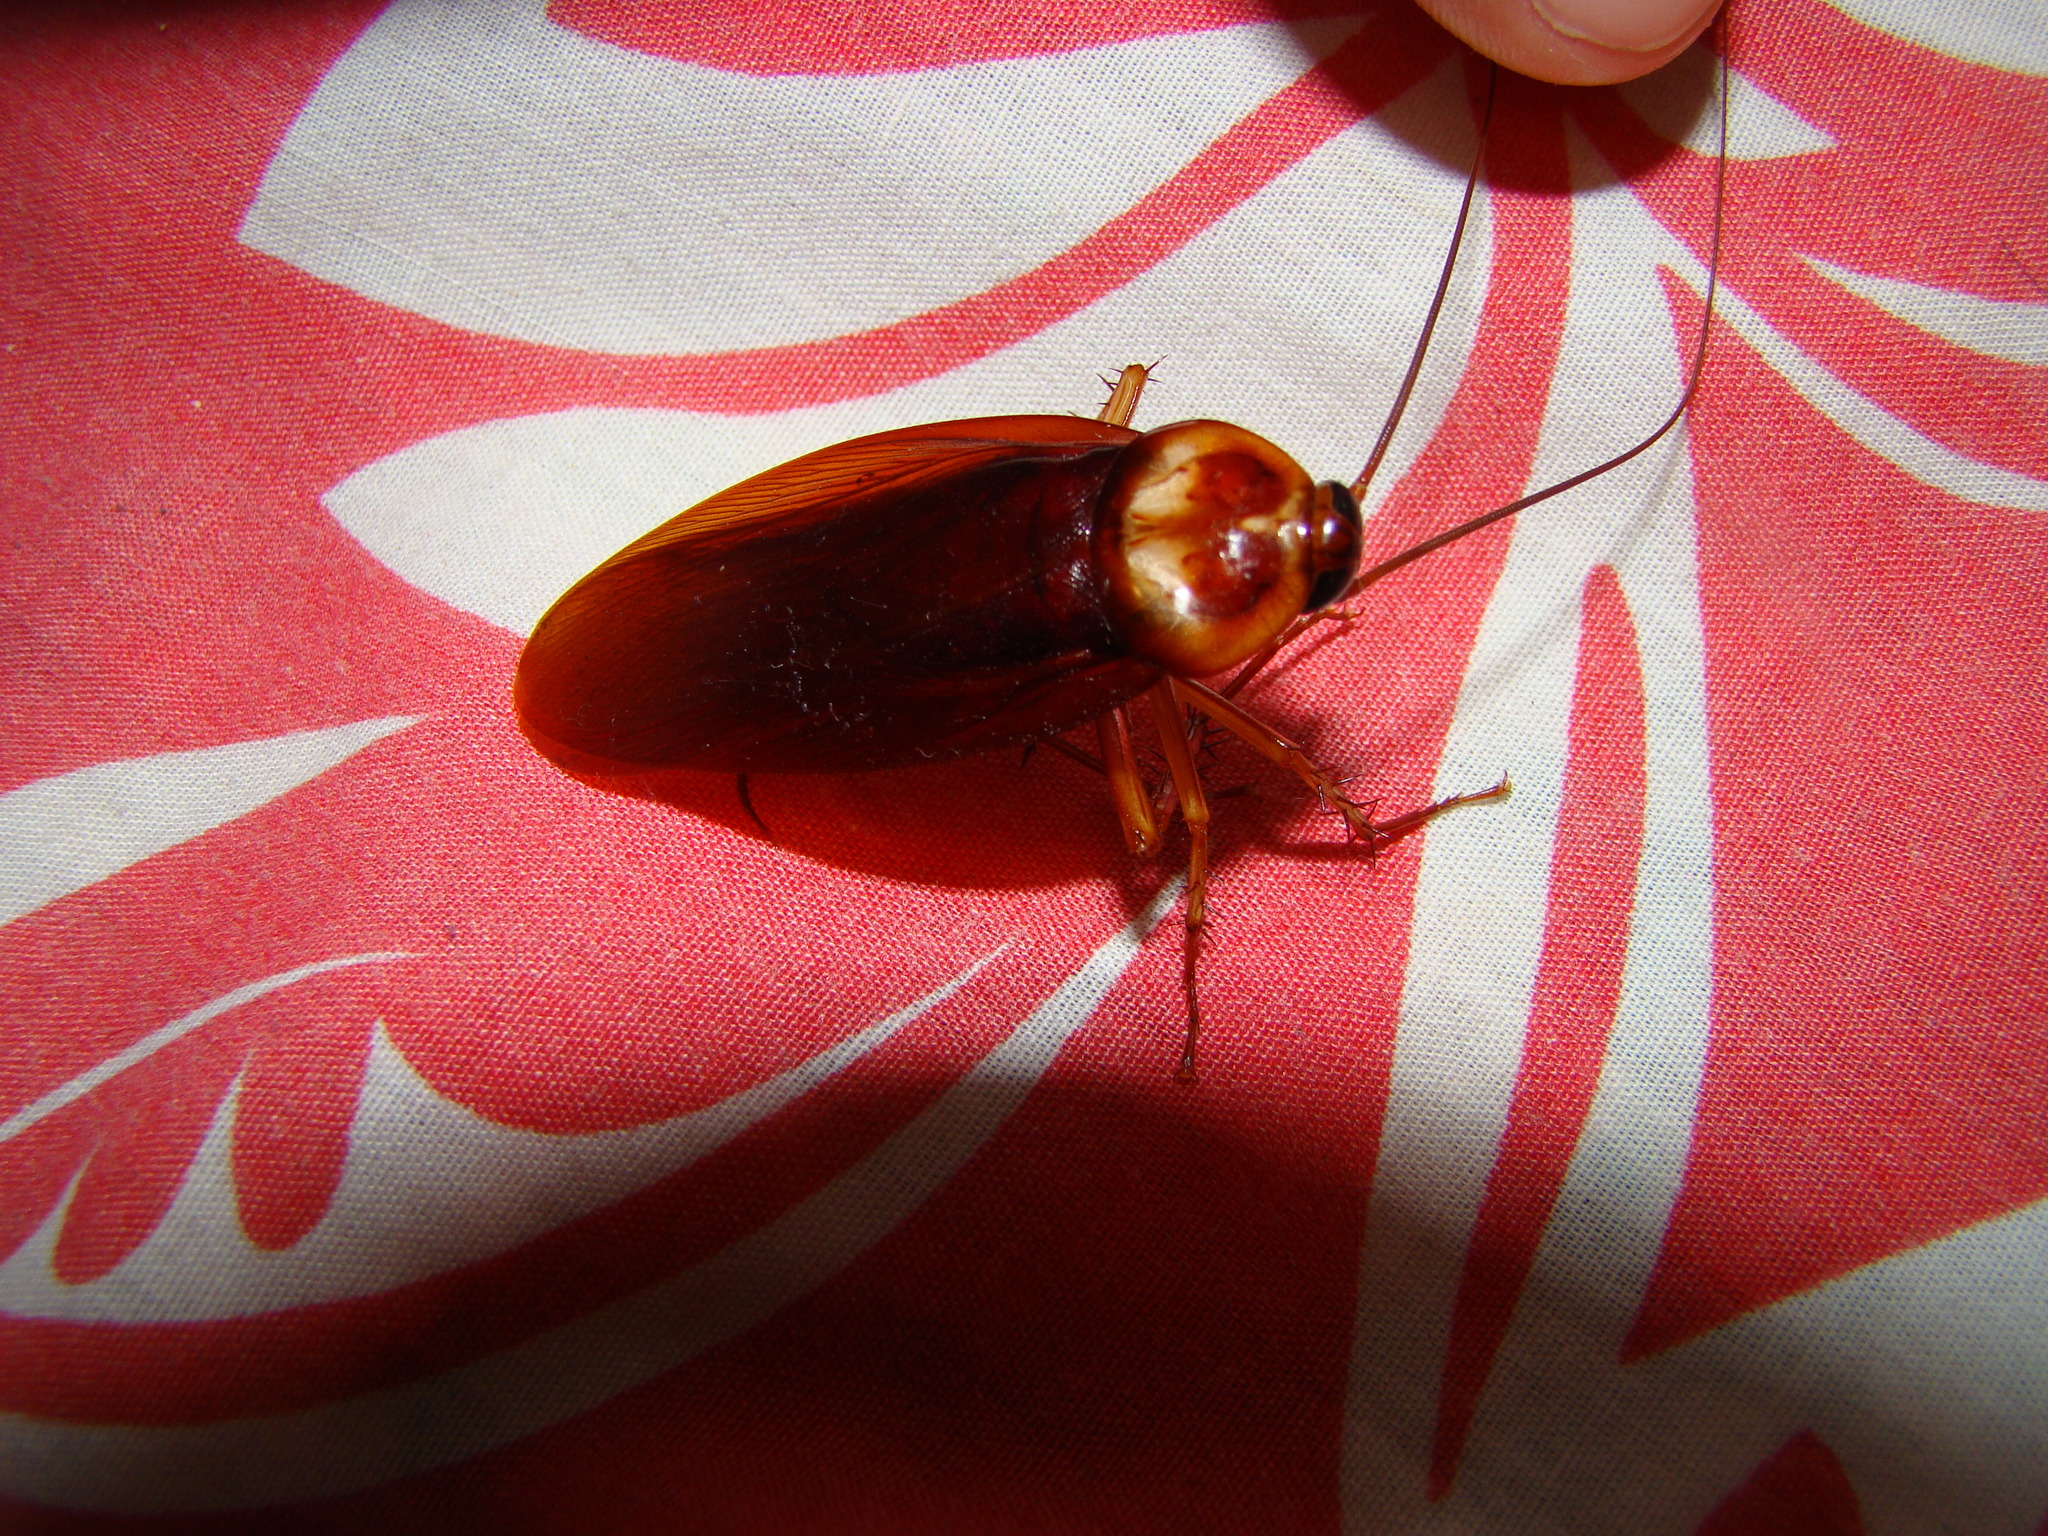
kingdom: Animalia
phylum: Arthropoda
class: Insecta
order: Blattodea
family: Blattidae
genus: Periplaneta
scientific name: Periplaneta americana
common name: American cockroach
